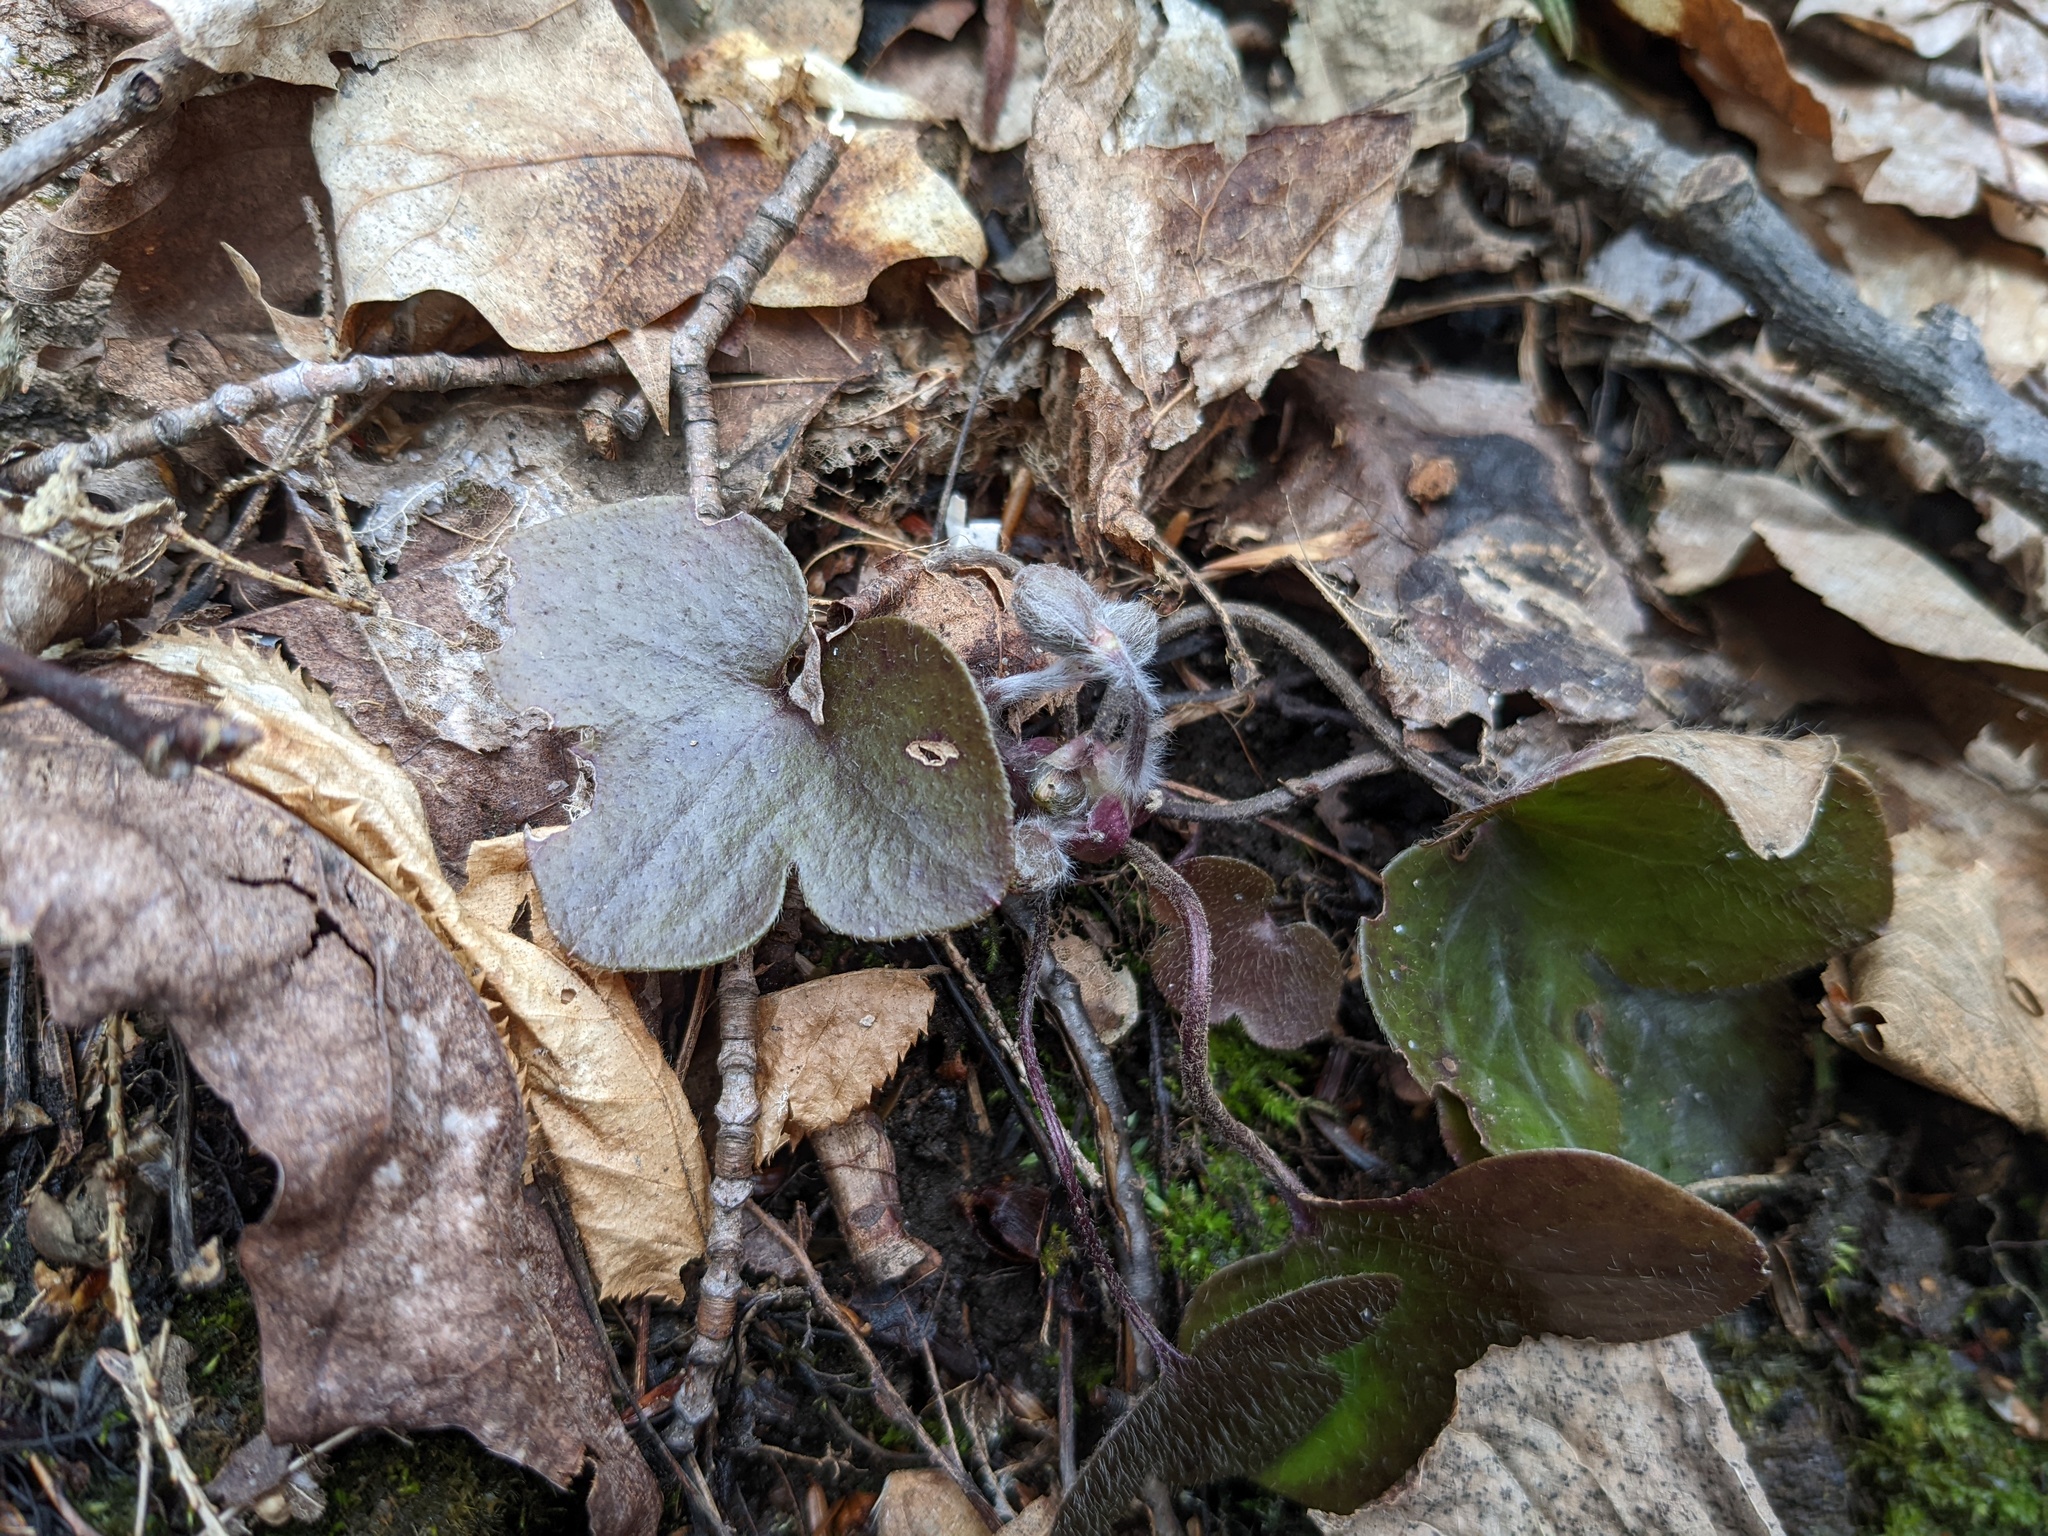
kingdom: Plantae
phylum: Tracheophyta
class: Magnoliopsida
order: Ranunculales
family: Ranunculaceae
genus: Hepatica
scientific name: Hepatica americana
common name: American hepatica
